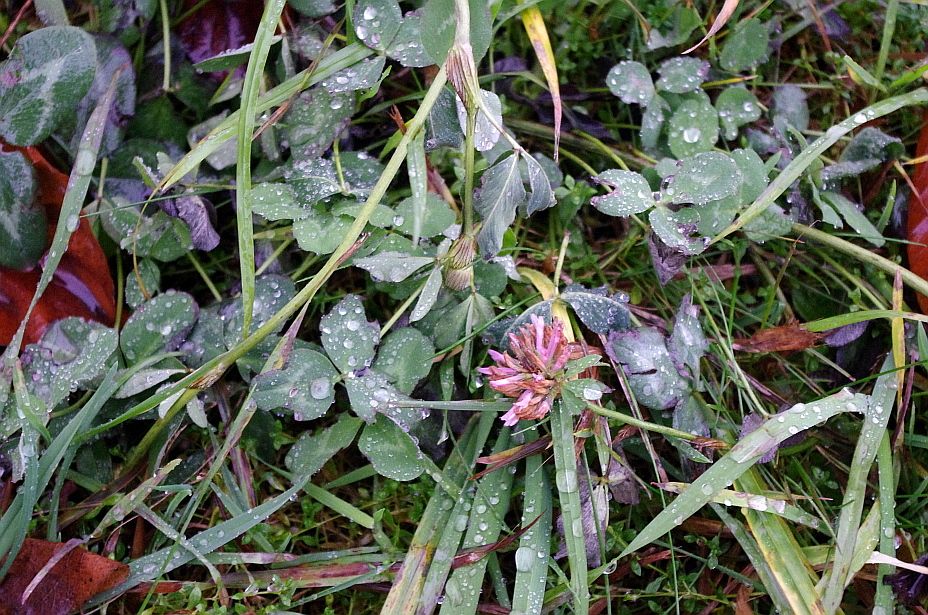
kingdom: Plantae
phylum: Tracheophyta
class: Magnoliopsida
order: Fabales
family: Fabaceae
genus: Trifolium
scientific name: Trifolium pratense
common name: Red clover
